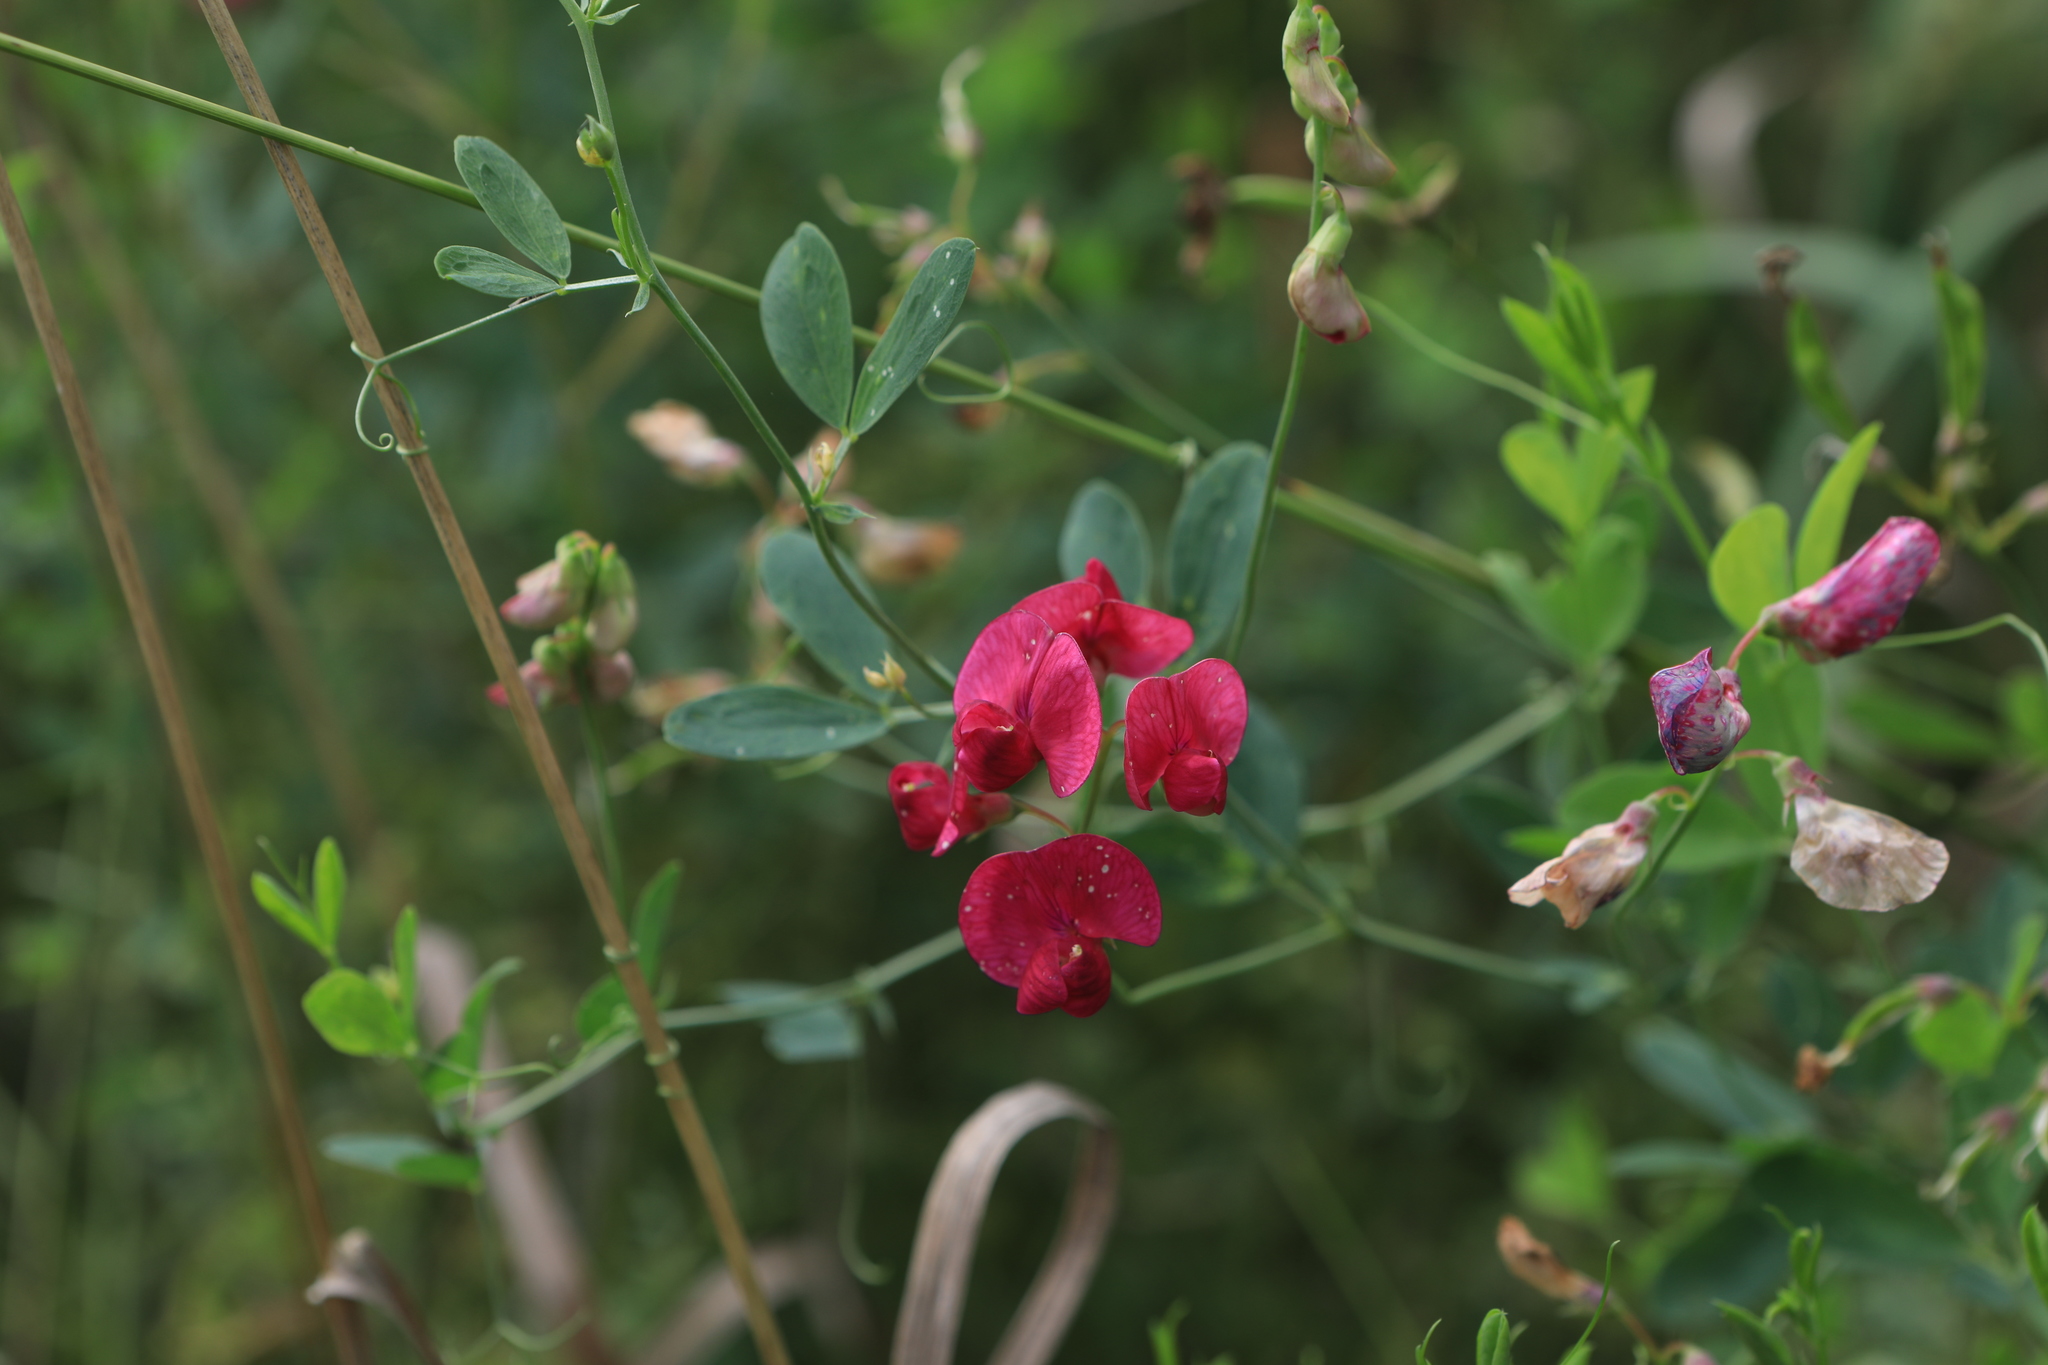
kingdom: Plantae
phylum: Tracheophyta
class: Magnoliopsida
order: Fabales
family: Fabaceae
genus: Lathyrus
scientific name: Lathyrus tuberosus
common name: Tuberous pea
